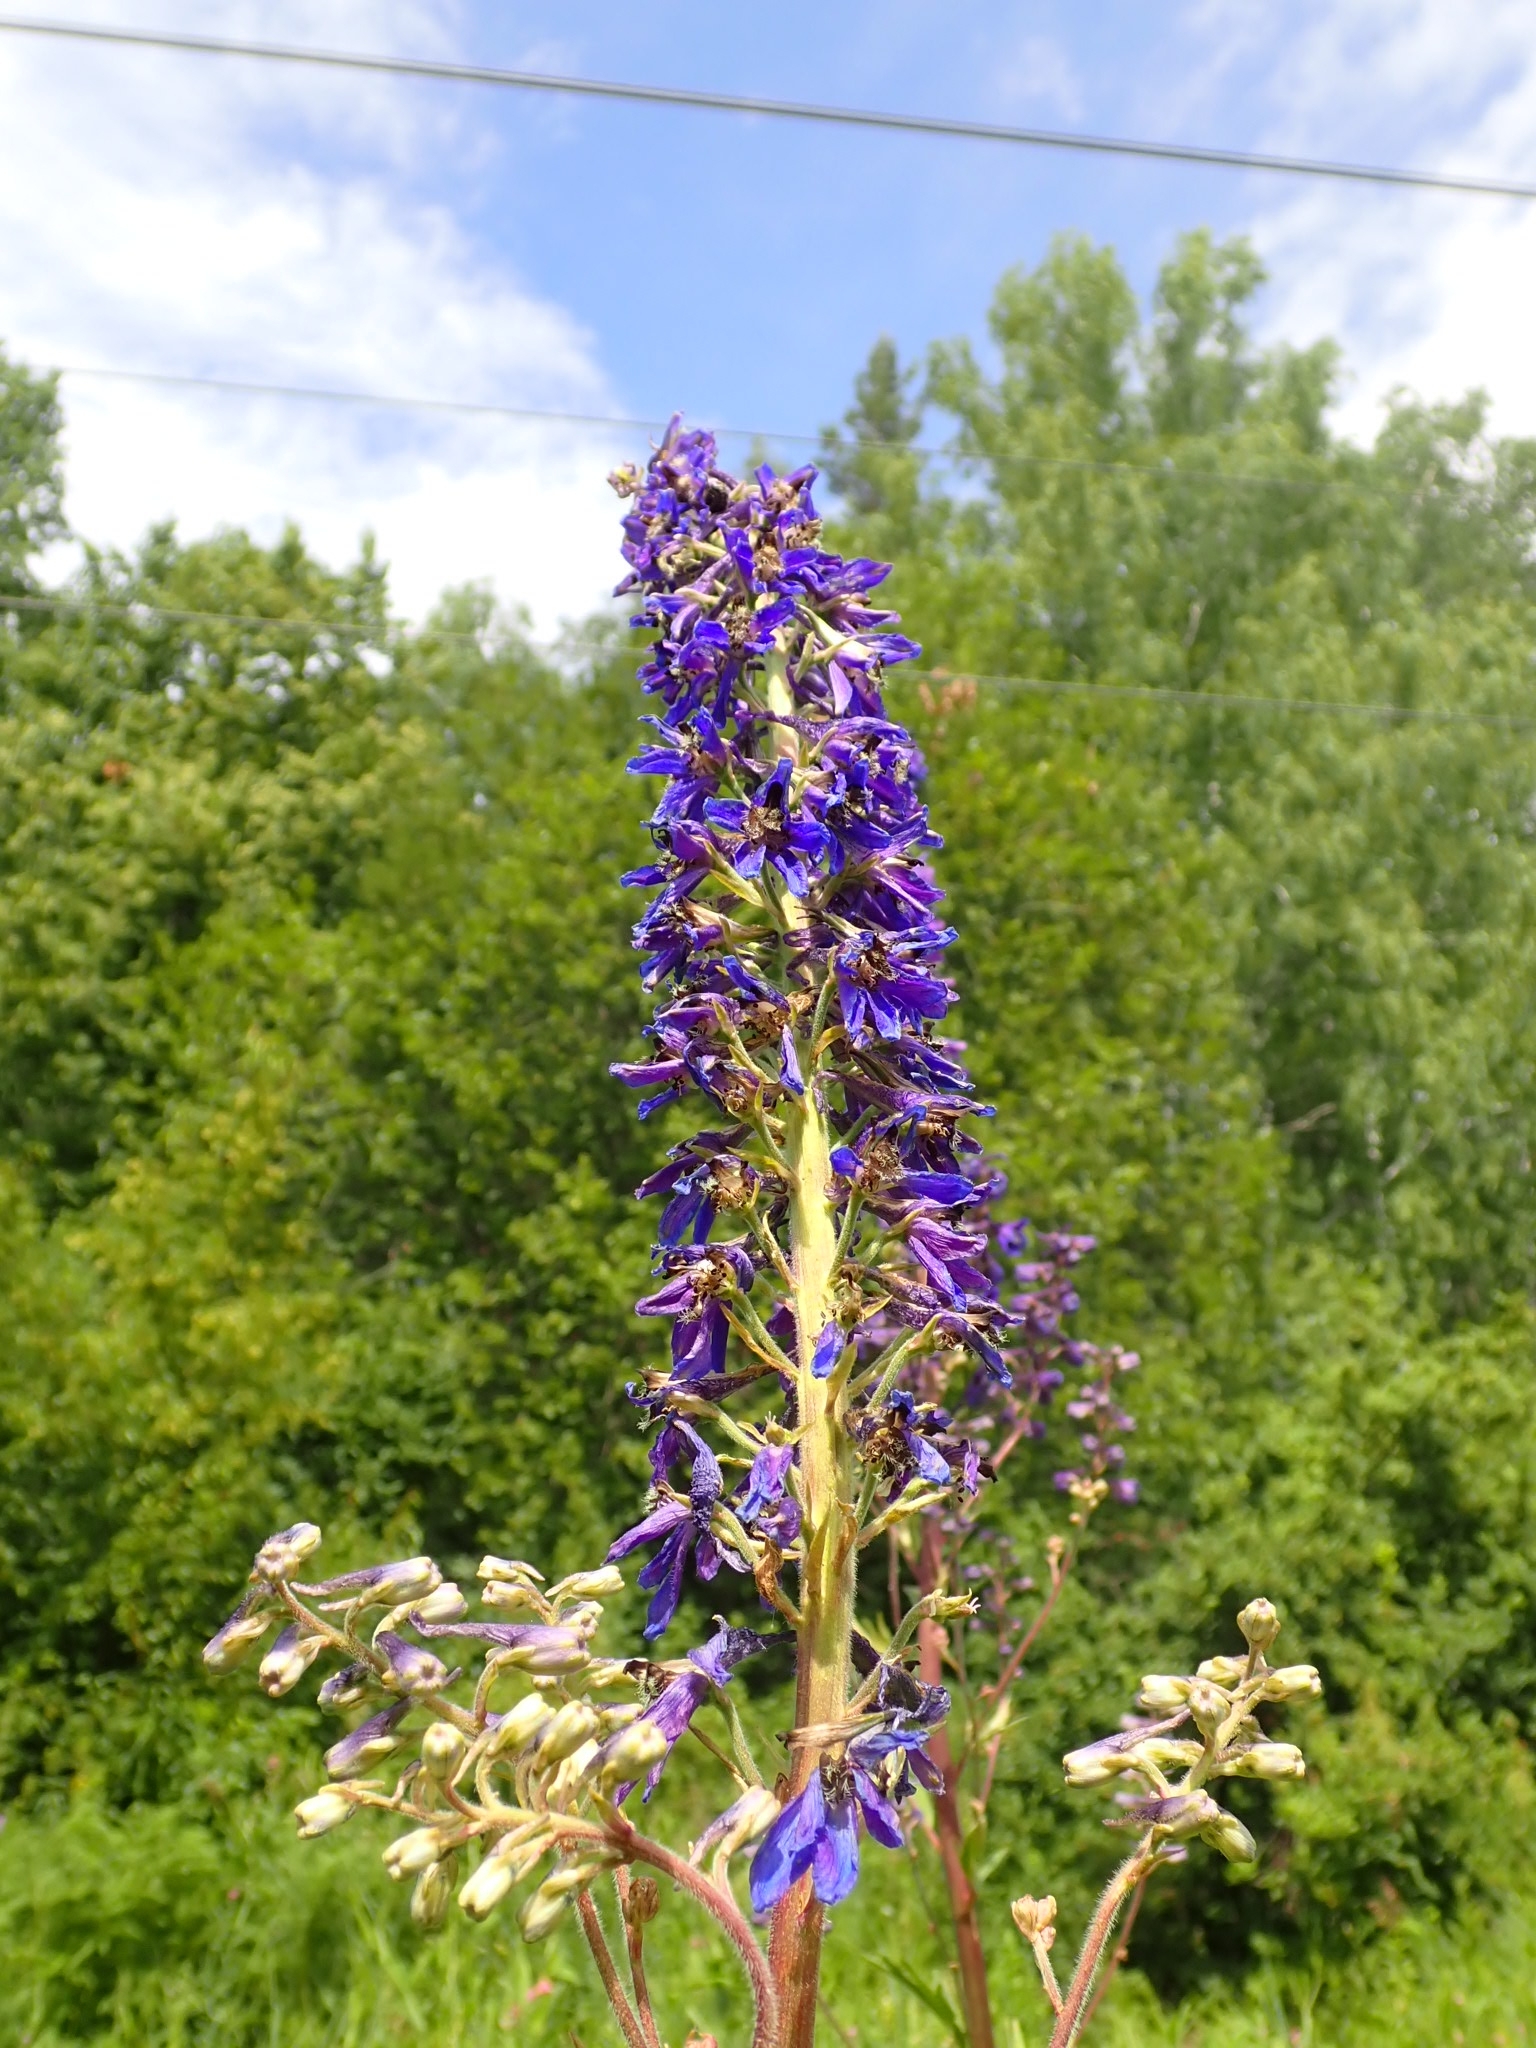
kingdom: Plantae
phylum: Tracheophyta
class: Magnoliopsida
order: Ranunculales
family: Ranunculaceae
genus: Delphinium
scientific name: Delphinium elatum
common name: Candle larkspur
